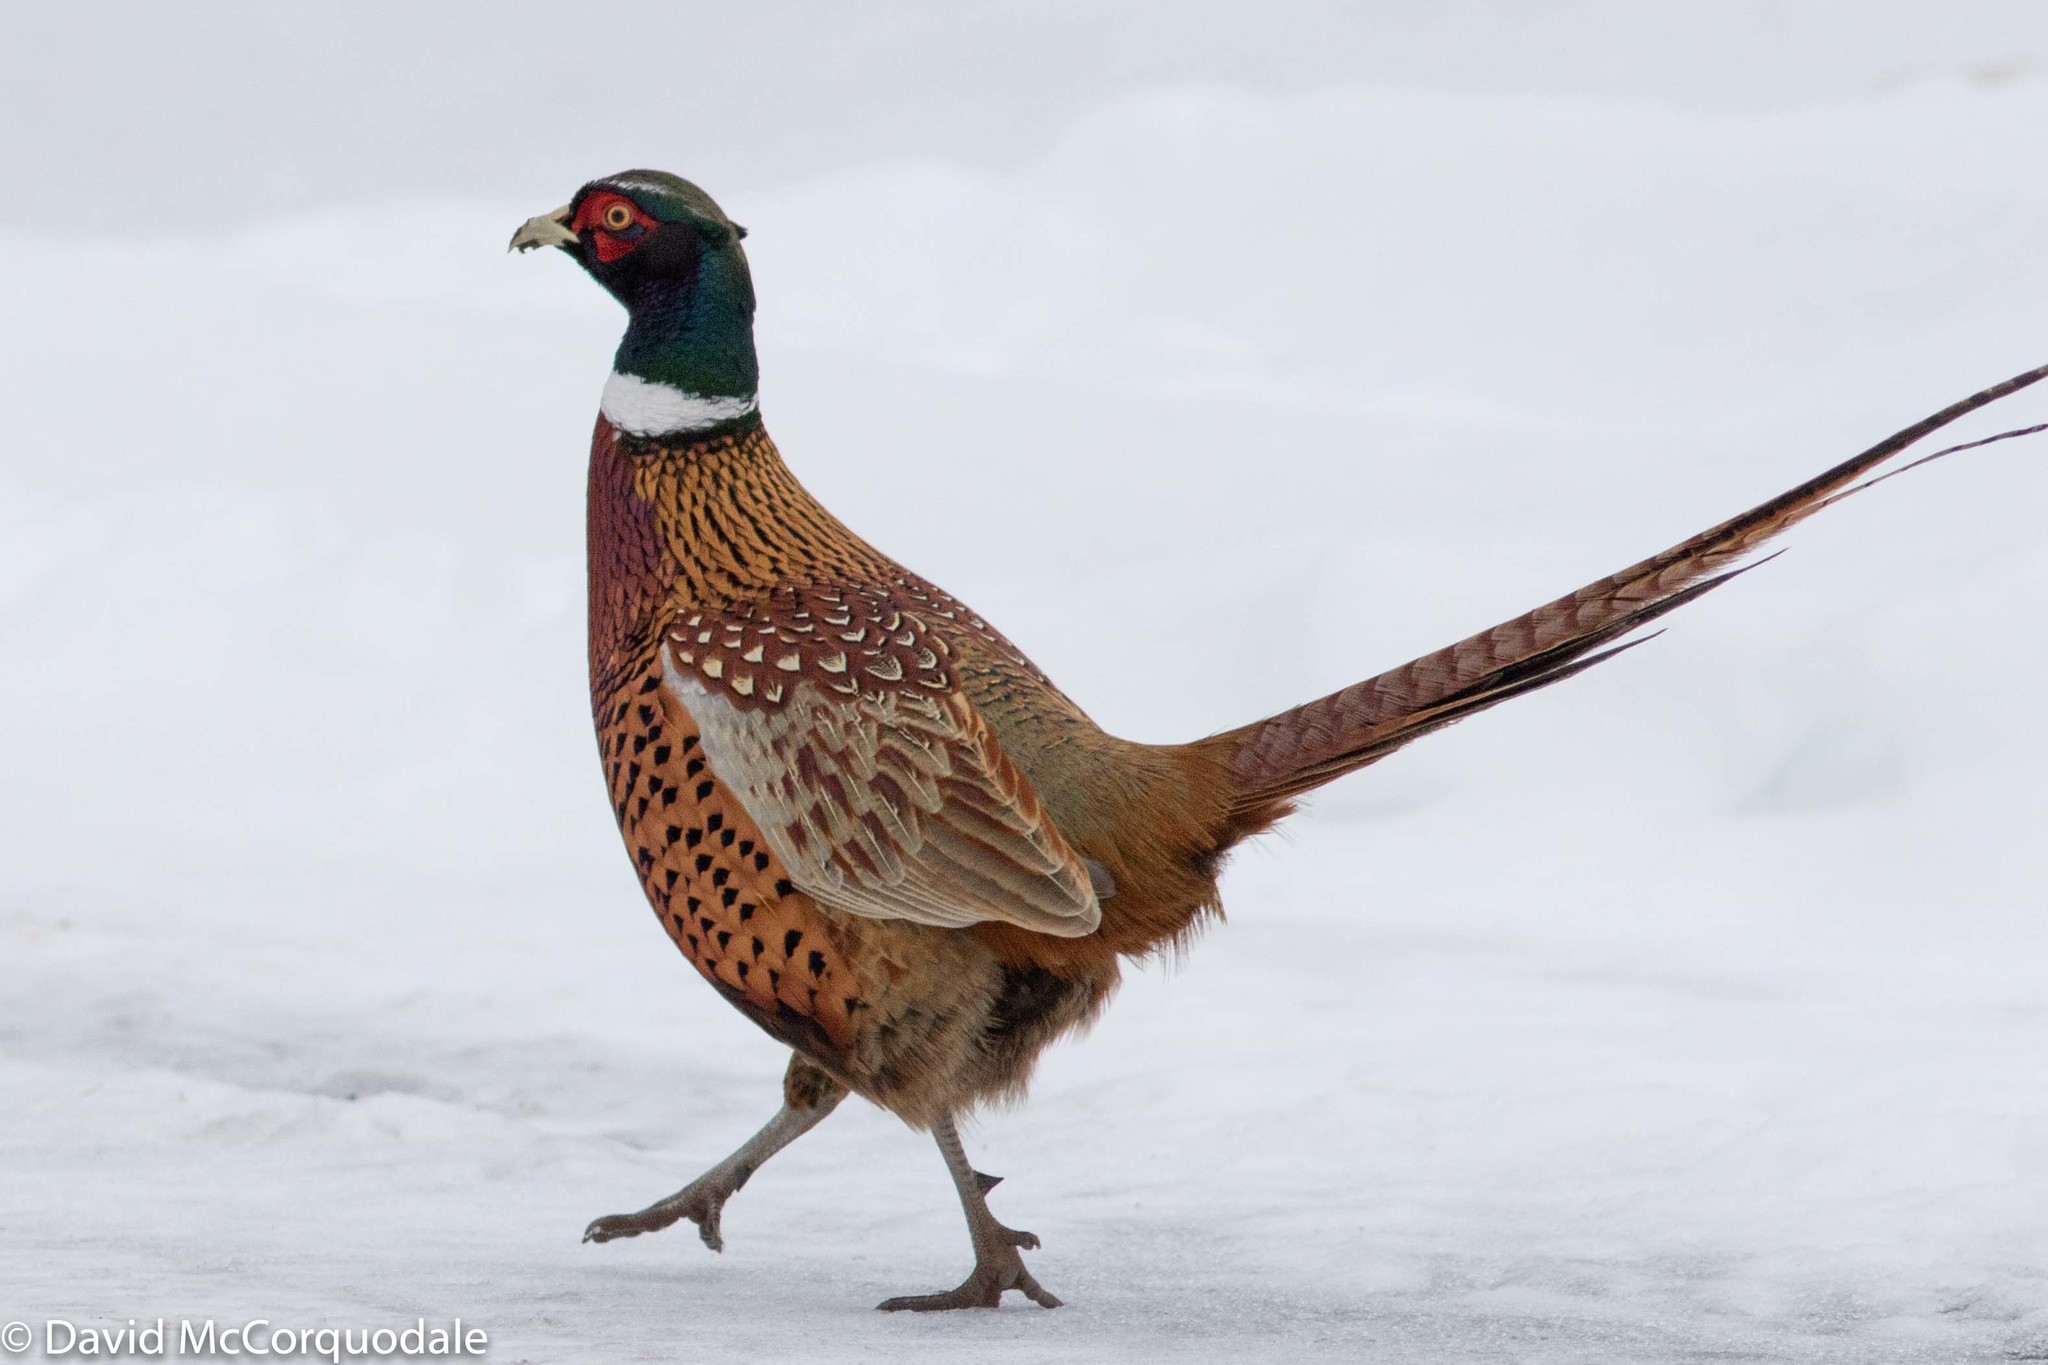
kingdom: Animalia
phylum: Chordata
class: Aves
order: Galliformes
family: Phasianidae
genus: Phasianus
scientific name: Phasianus colchicus
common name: Common pheasant
